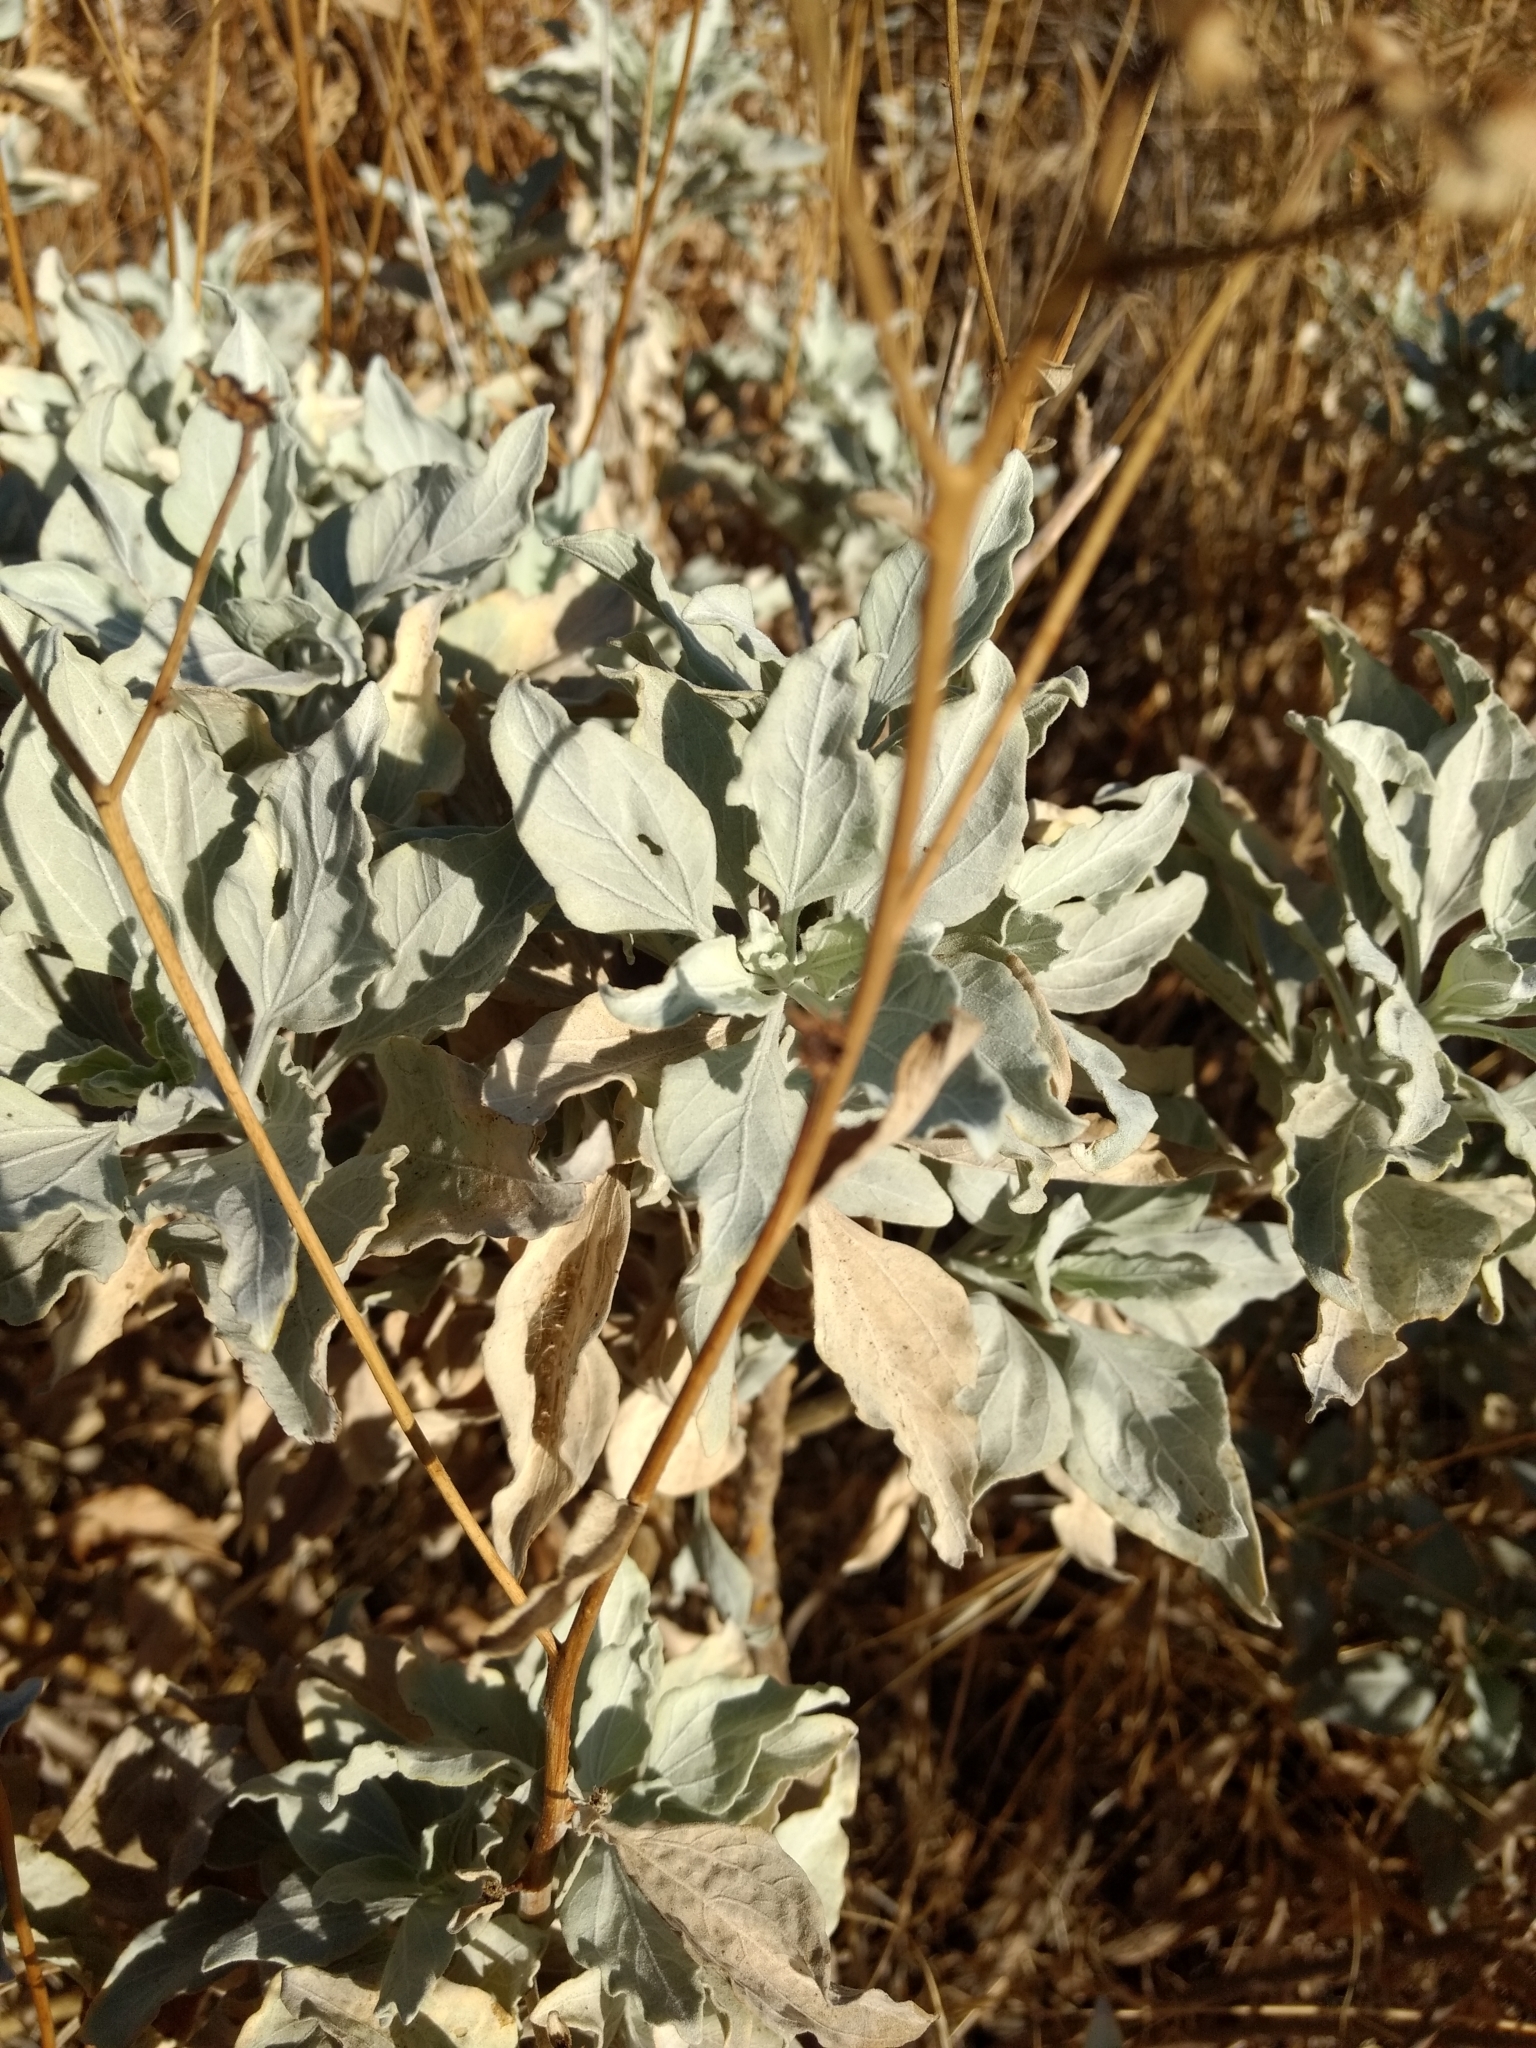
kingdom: Plantae
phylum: Tracheophyta
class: Magnoliopsida
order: Asterales
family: Asteraceae
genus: Encelia
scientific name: Encelia farinosa
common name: Brittlebush
